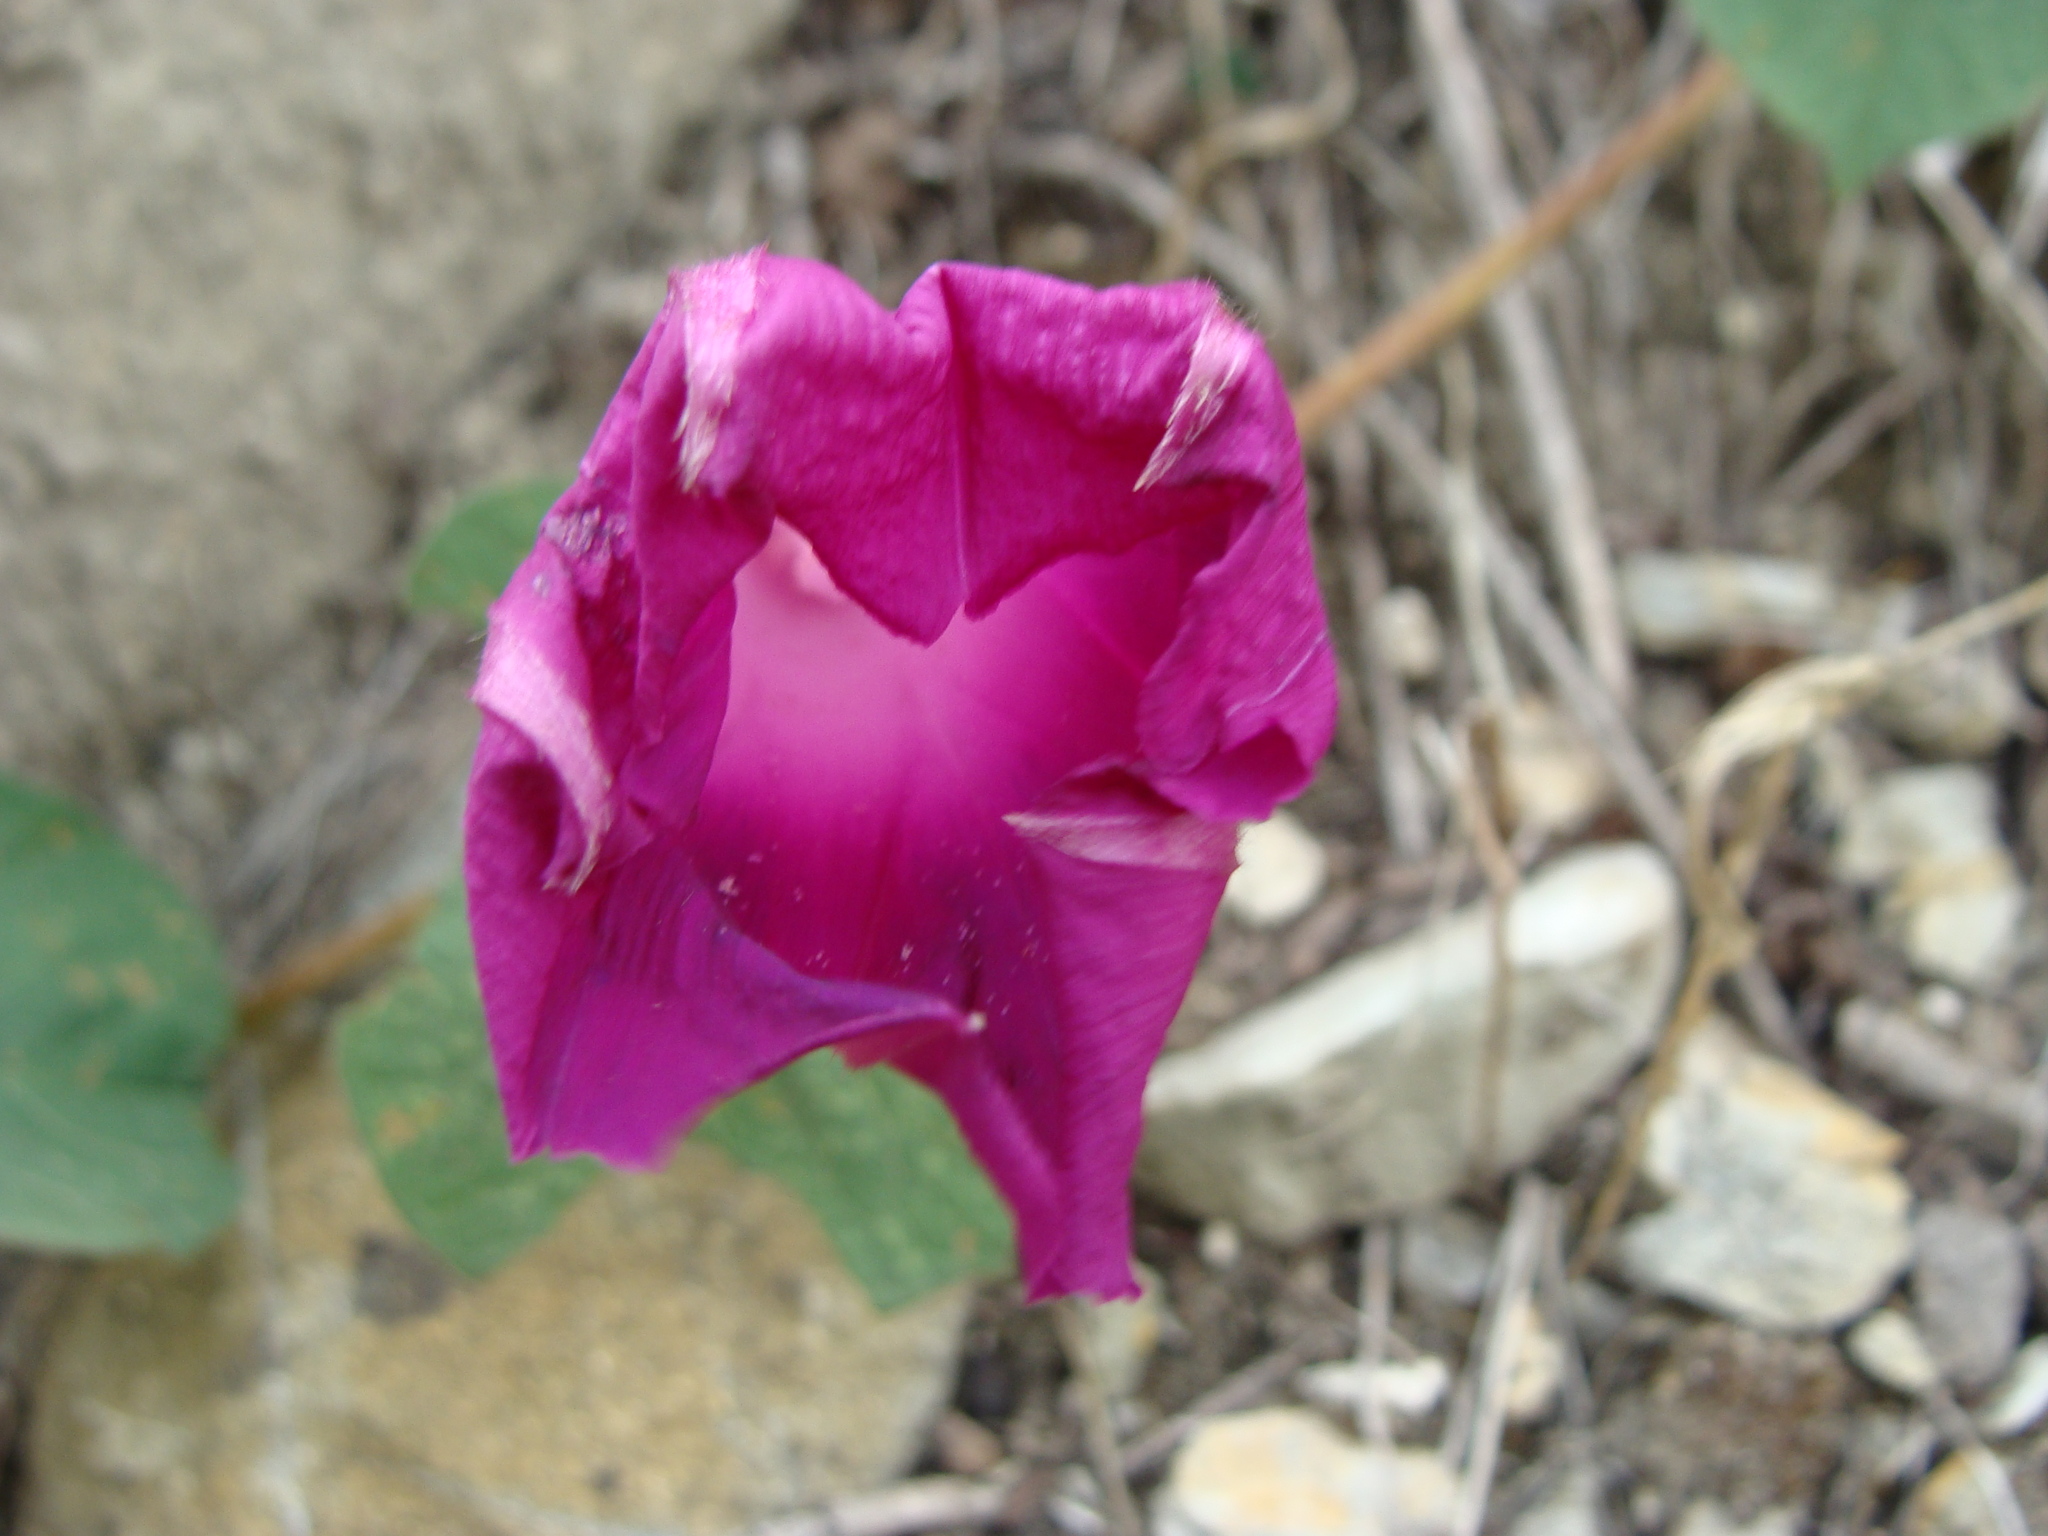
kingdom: Plantae
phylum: Tracheophyta
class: Magnoliopsida
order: Solanales
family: Convolvulaceae
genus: Ipomoea
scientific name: Ipomoea orizabensis
